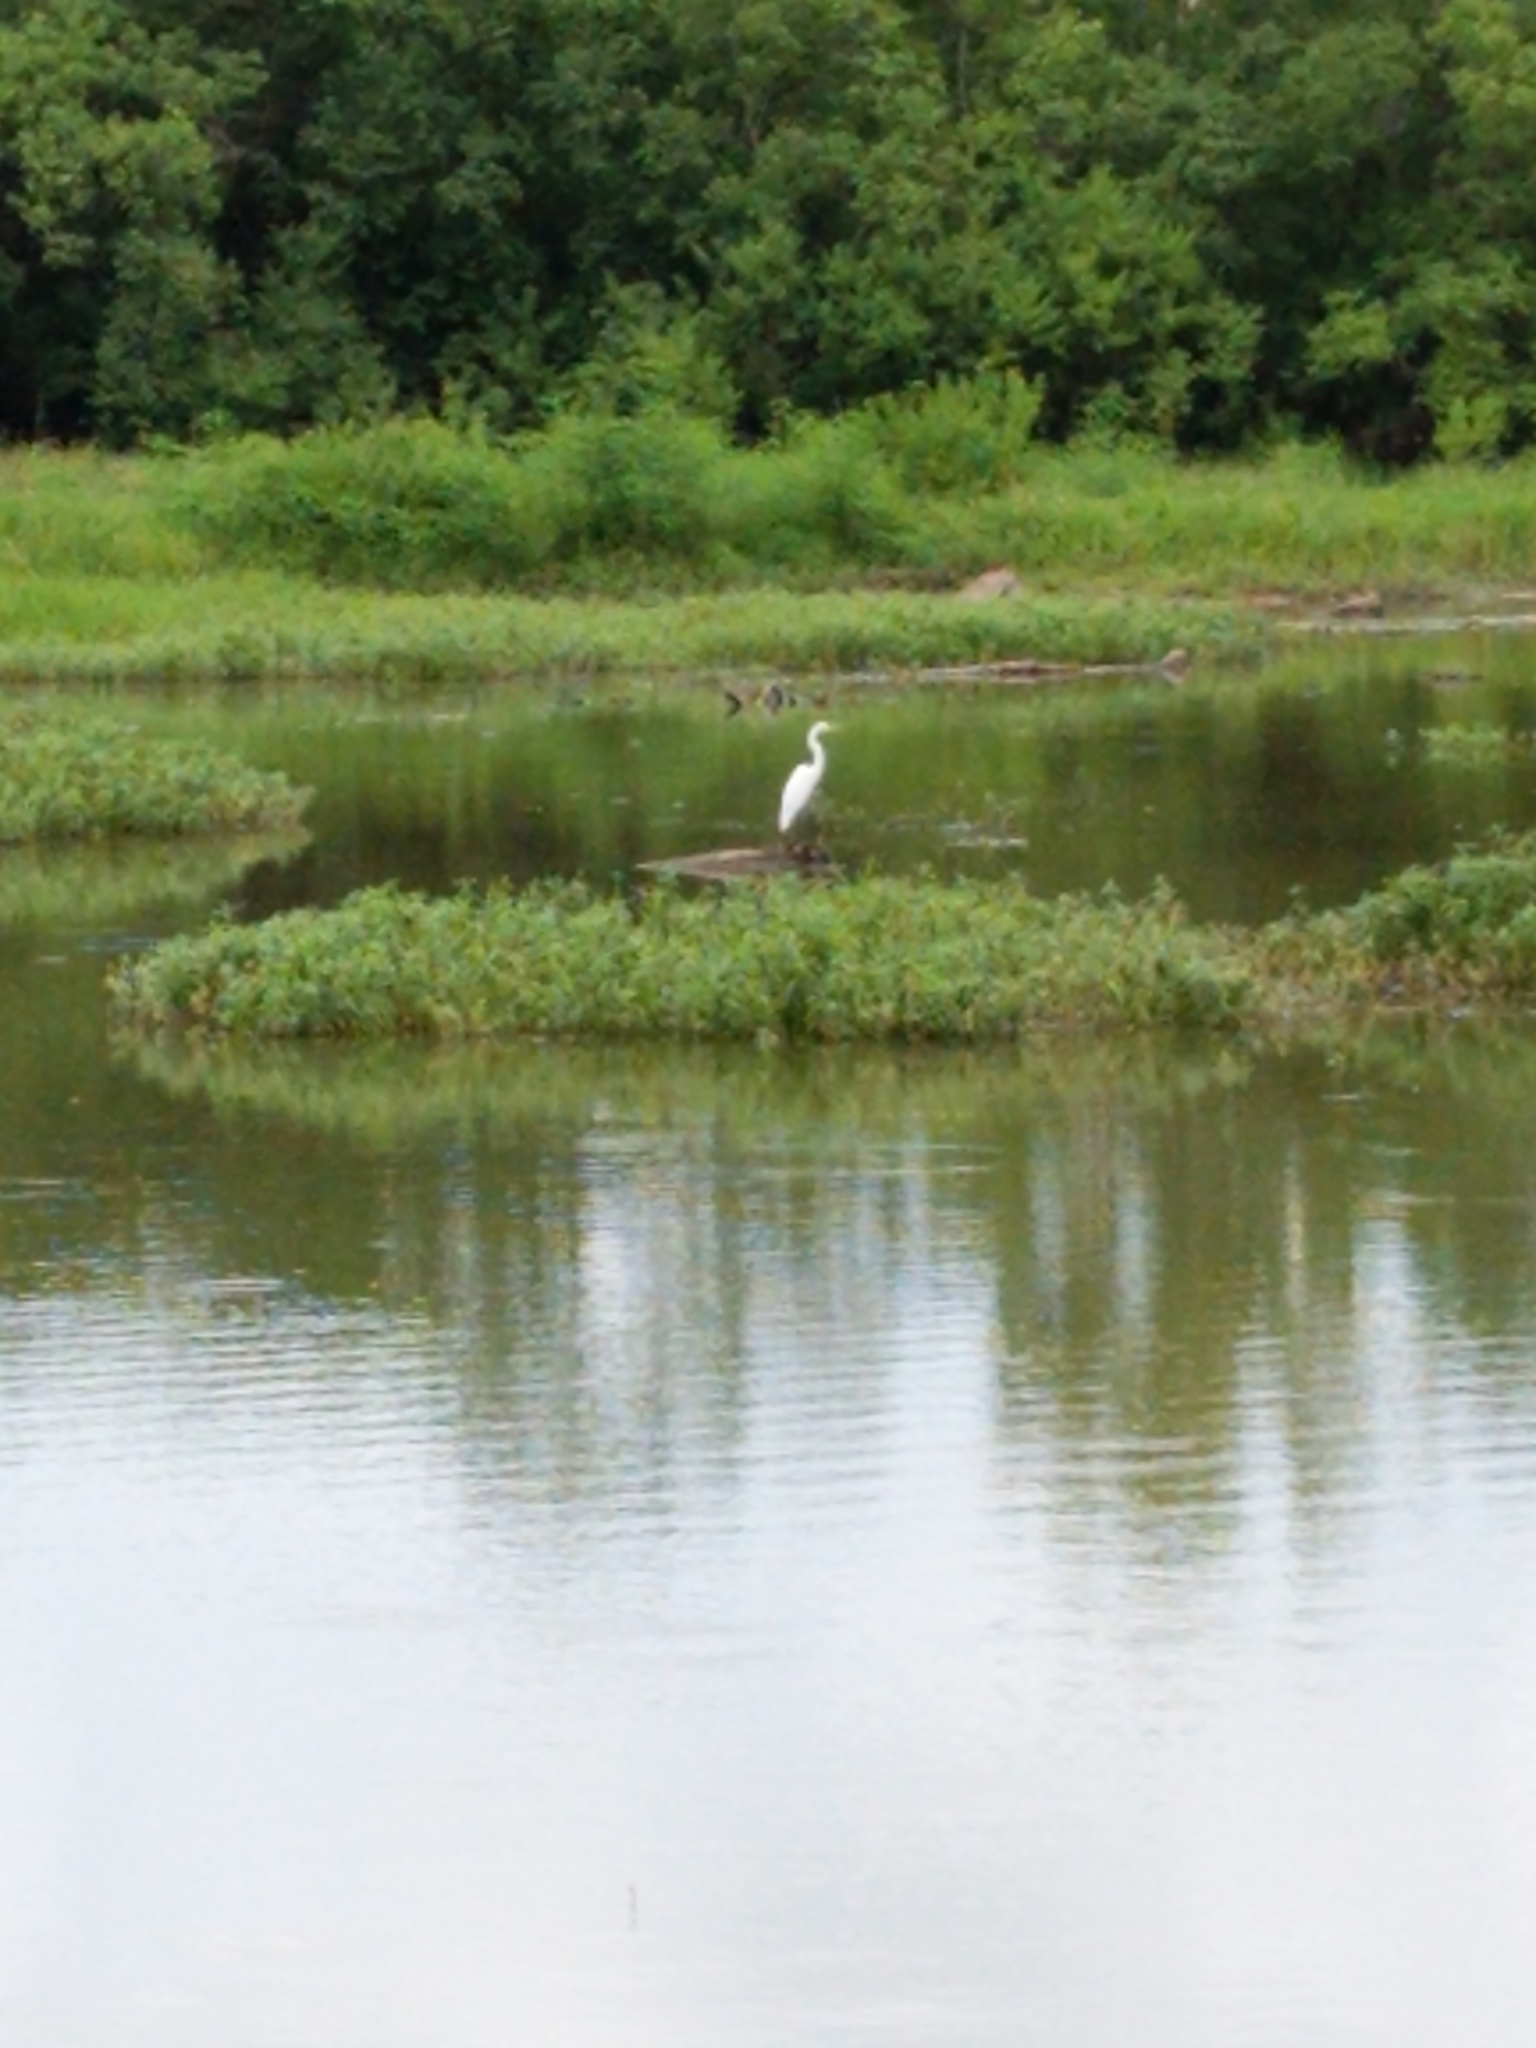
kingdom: Animalia
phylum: Chordata
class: Aves
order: Pelecaniformes
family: Ardeidae
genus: Ardea
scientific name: Ardea alba
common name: Great egret
